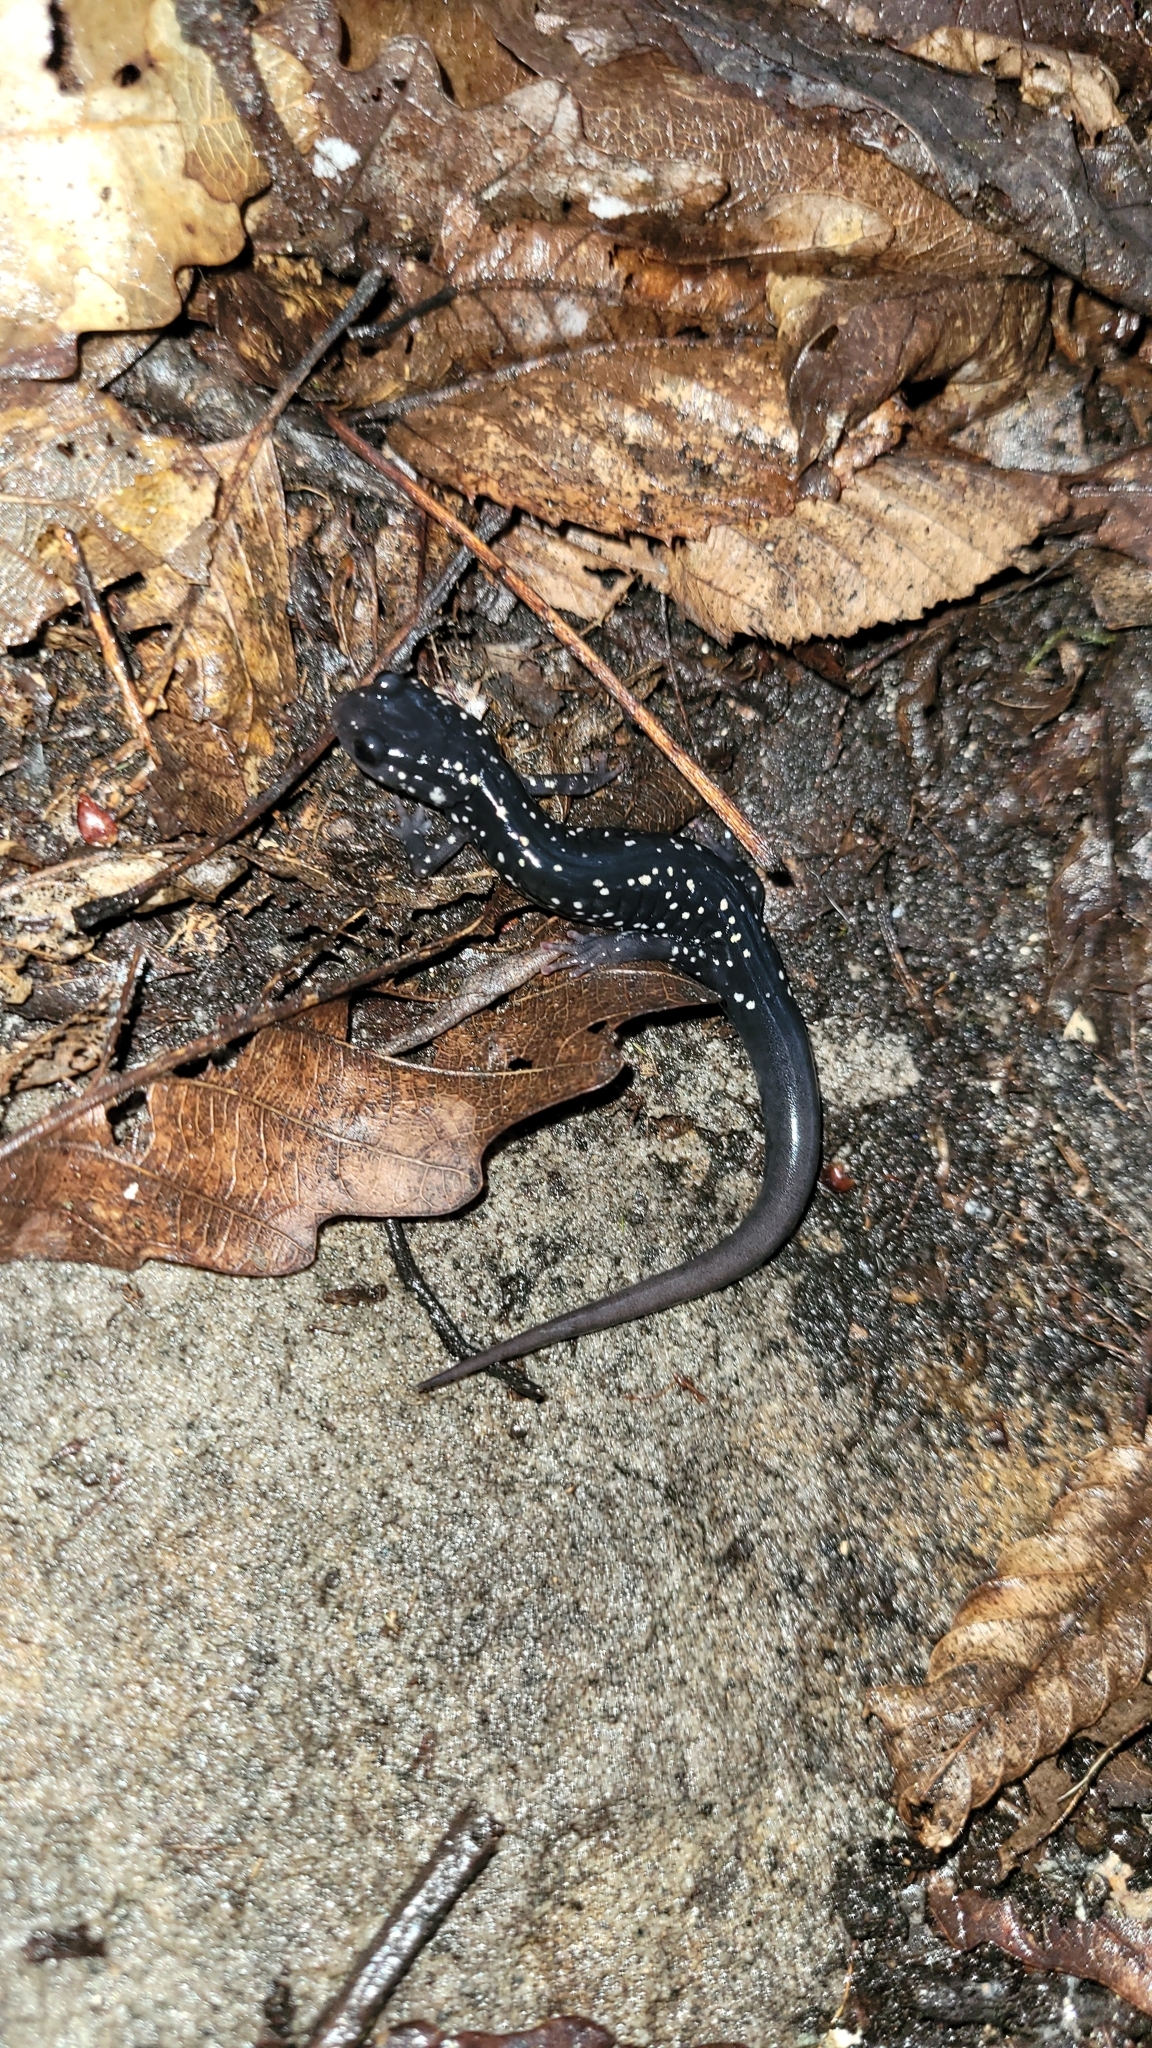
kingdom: Animalia
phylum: Chordata
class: Amphibia
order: Caudata
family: Plethodontidae
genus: Plethodon
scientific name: Plethodon glutinosus
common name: Northern slimy salamander
